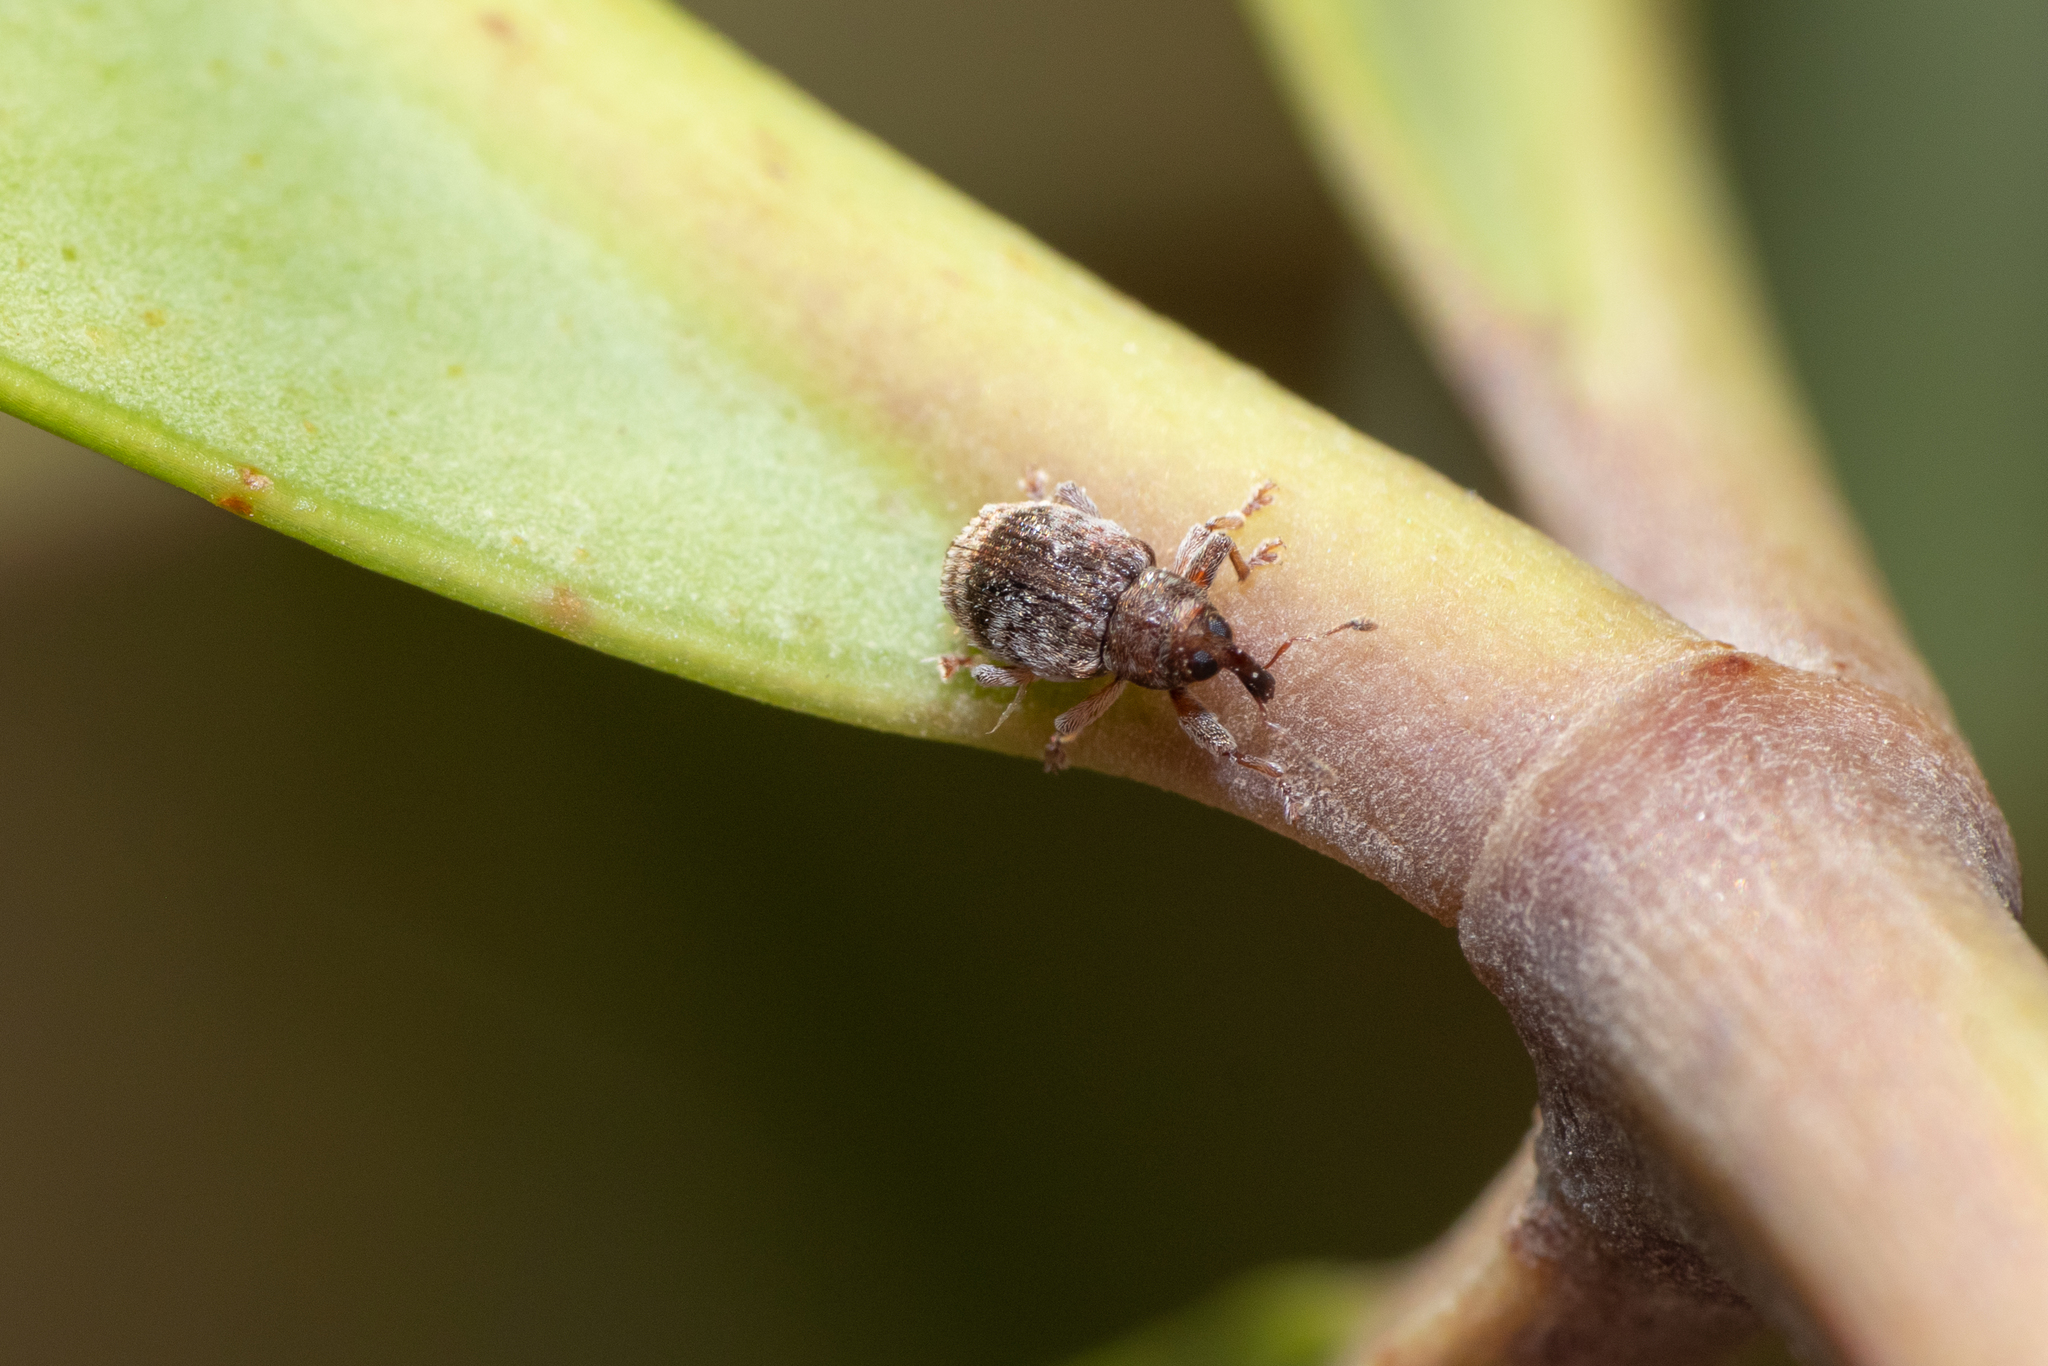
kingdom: Animalia
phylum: Arthropoda
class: Insecta
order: Coleoptera
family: Curculionidae
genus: Aneuma
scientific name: Aneuma fasciatum
